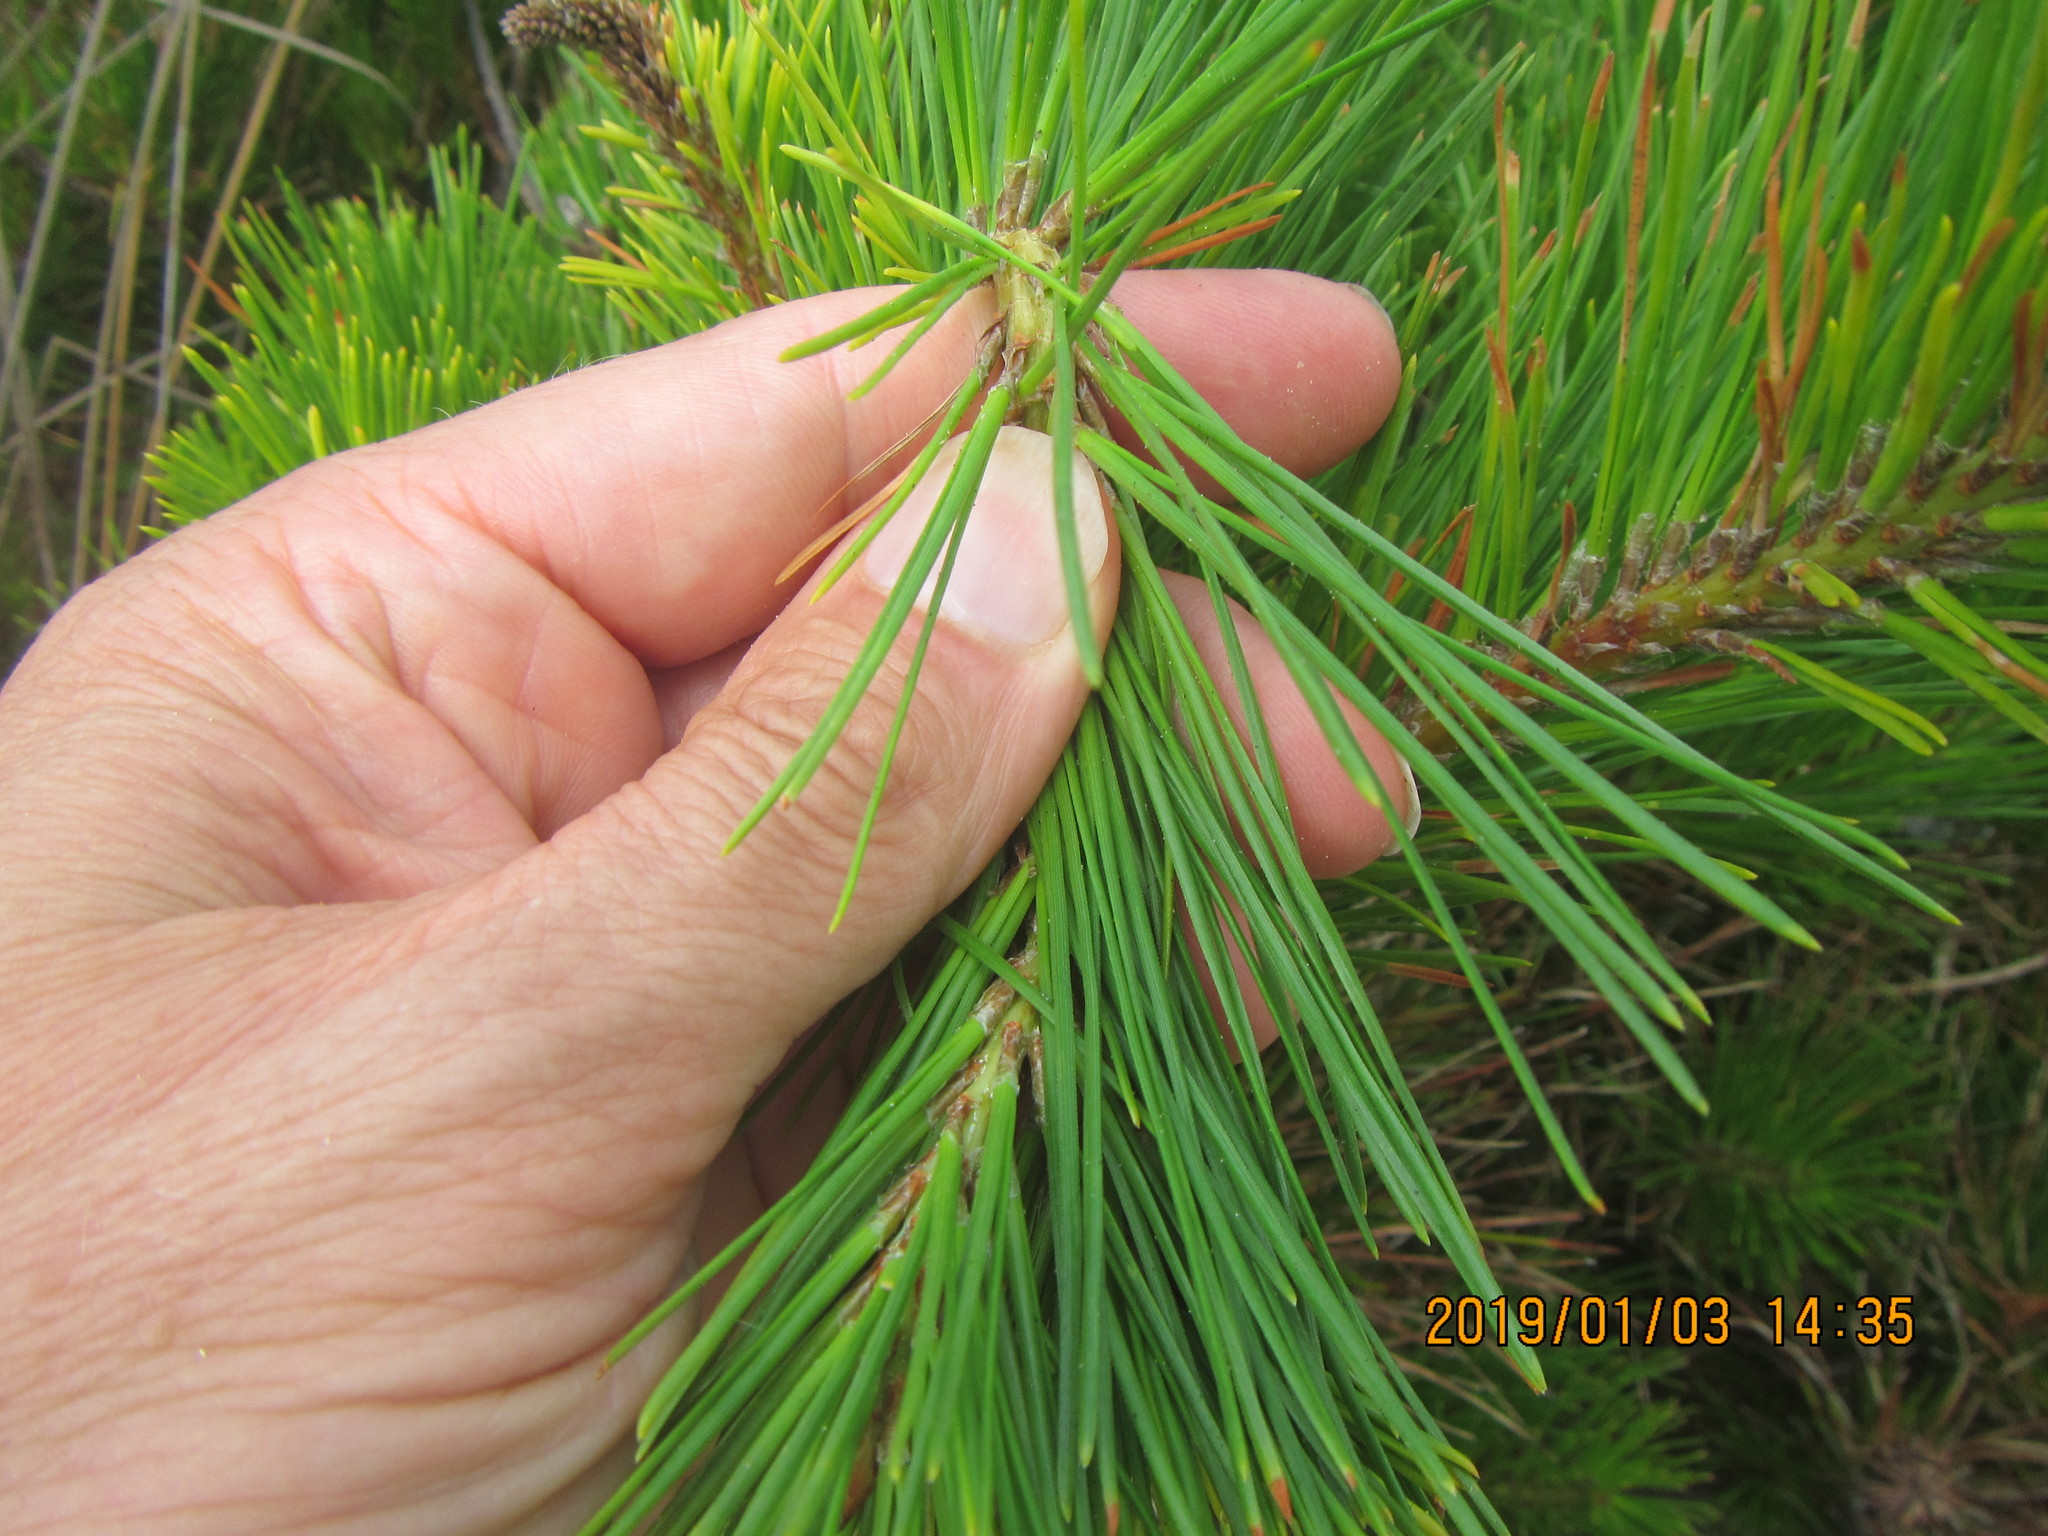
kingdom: Plantae
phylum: Tracheophyta
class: Pinopsida
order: Pinales
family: Pinaceae
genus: Pinus
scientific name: Pinus radiata
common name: Monterey pine
